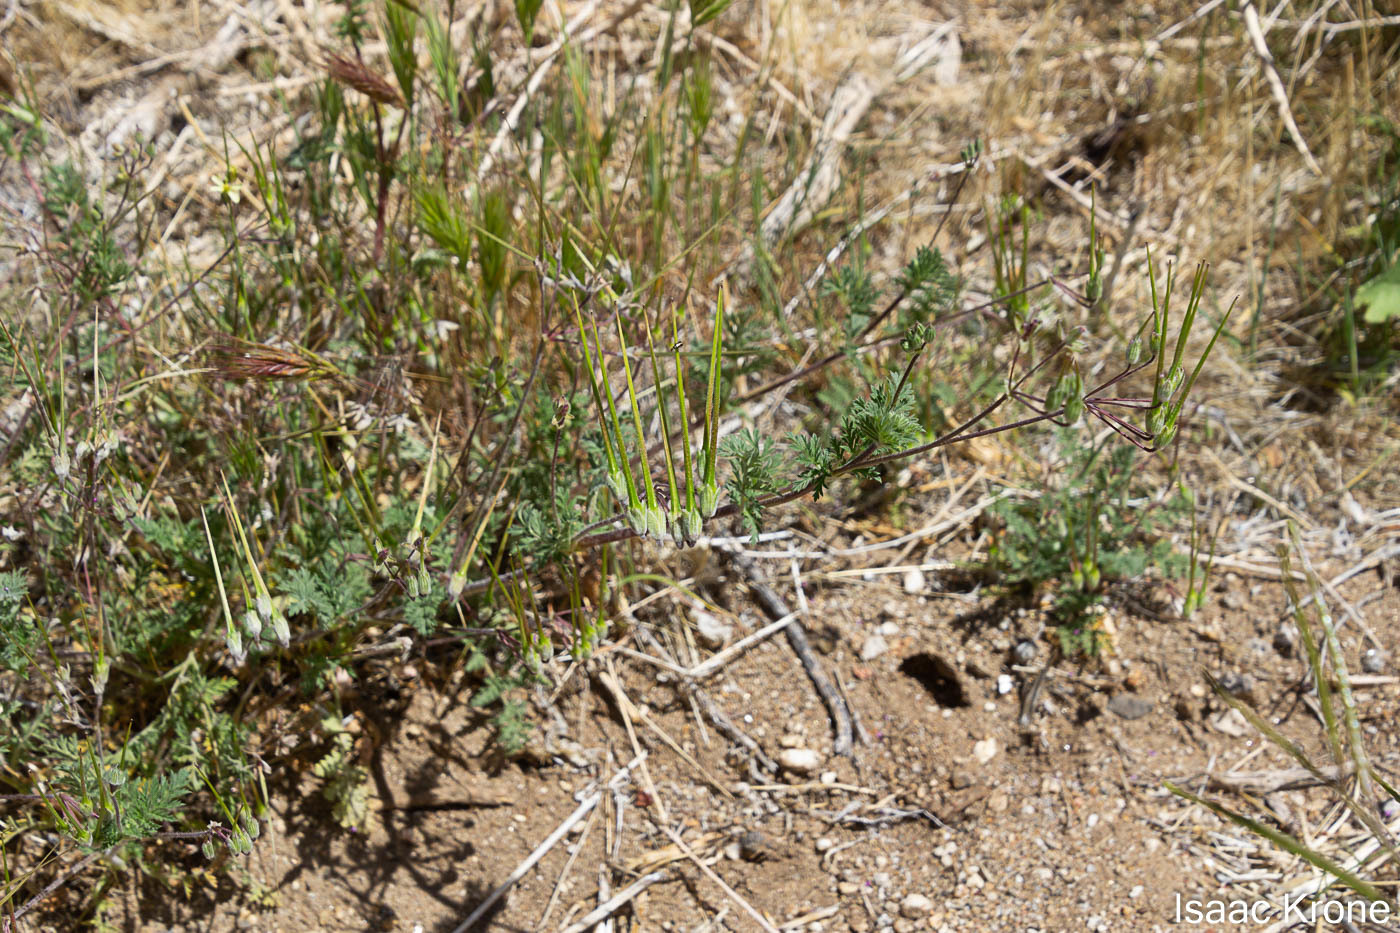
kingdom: Plantae
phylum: Tracheophyta
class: Magnoliopsida
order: Geraniales
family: Geraniaceae
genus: Erodium
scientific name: Erodium cicutarium
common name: Common stork's-bill
